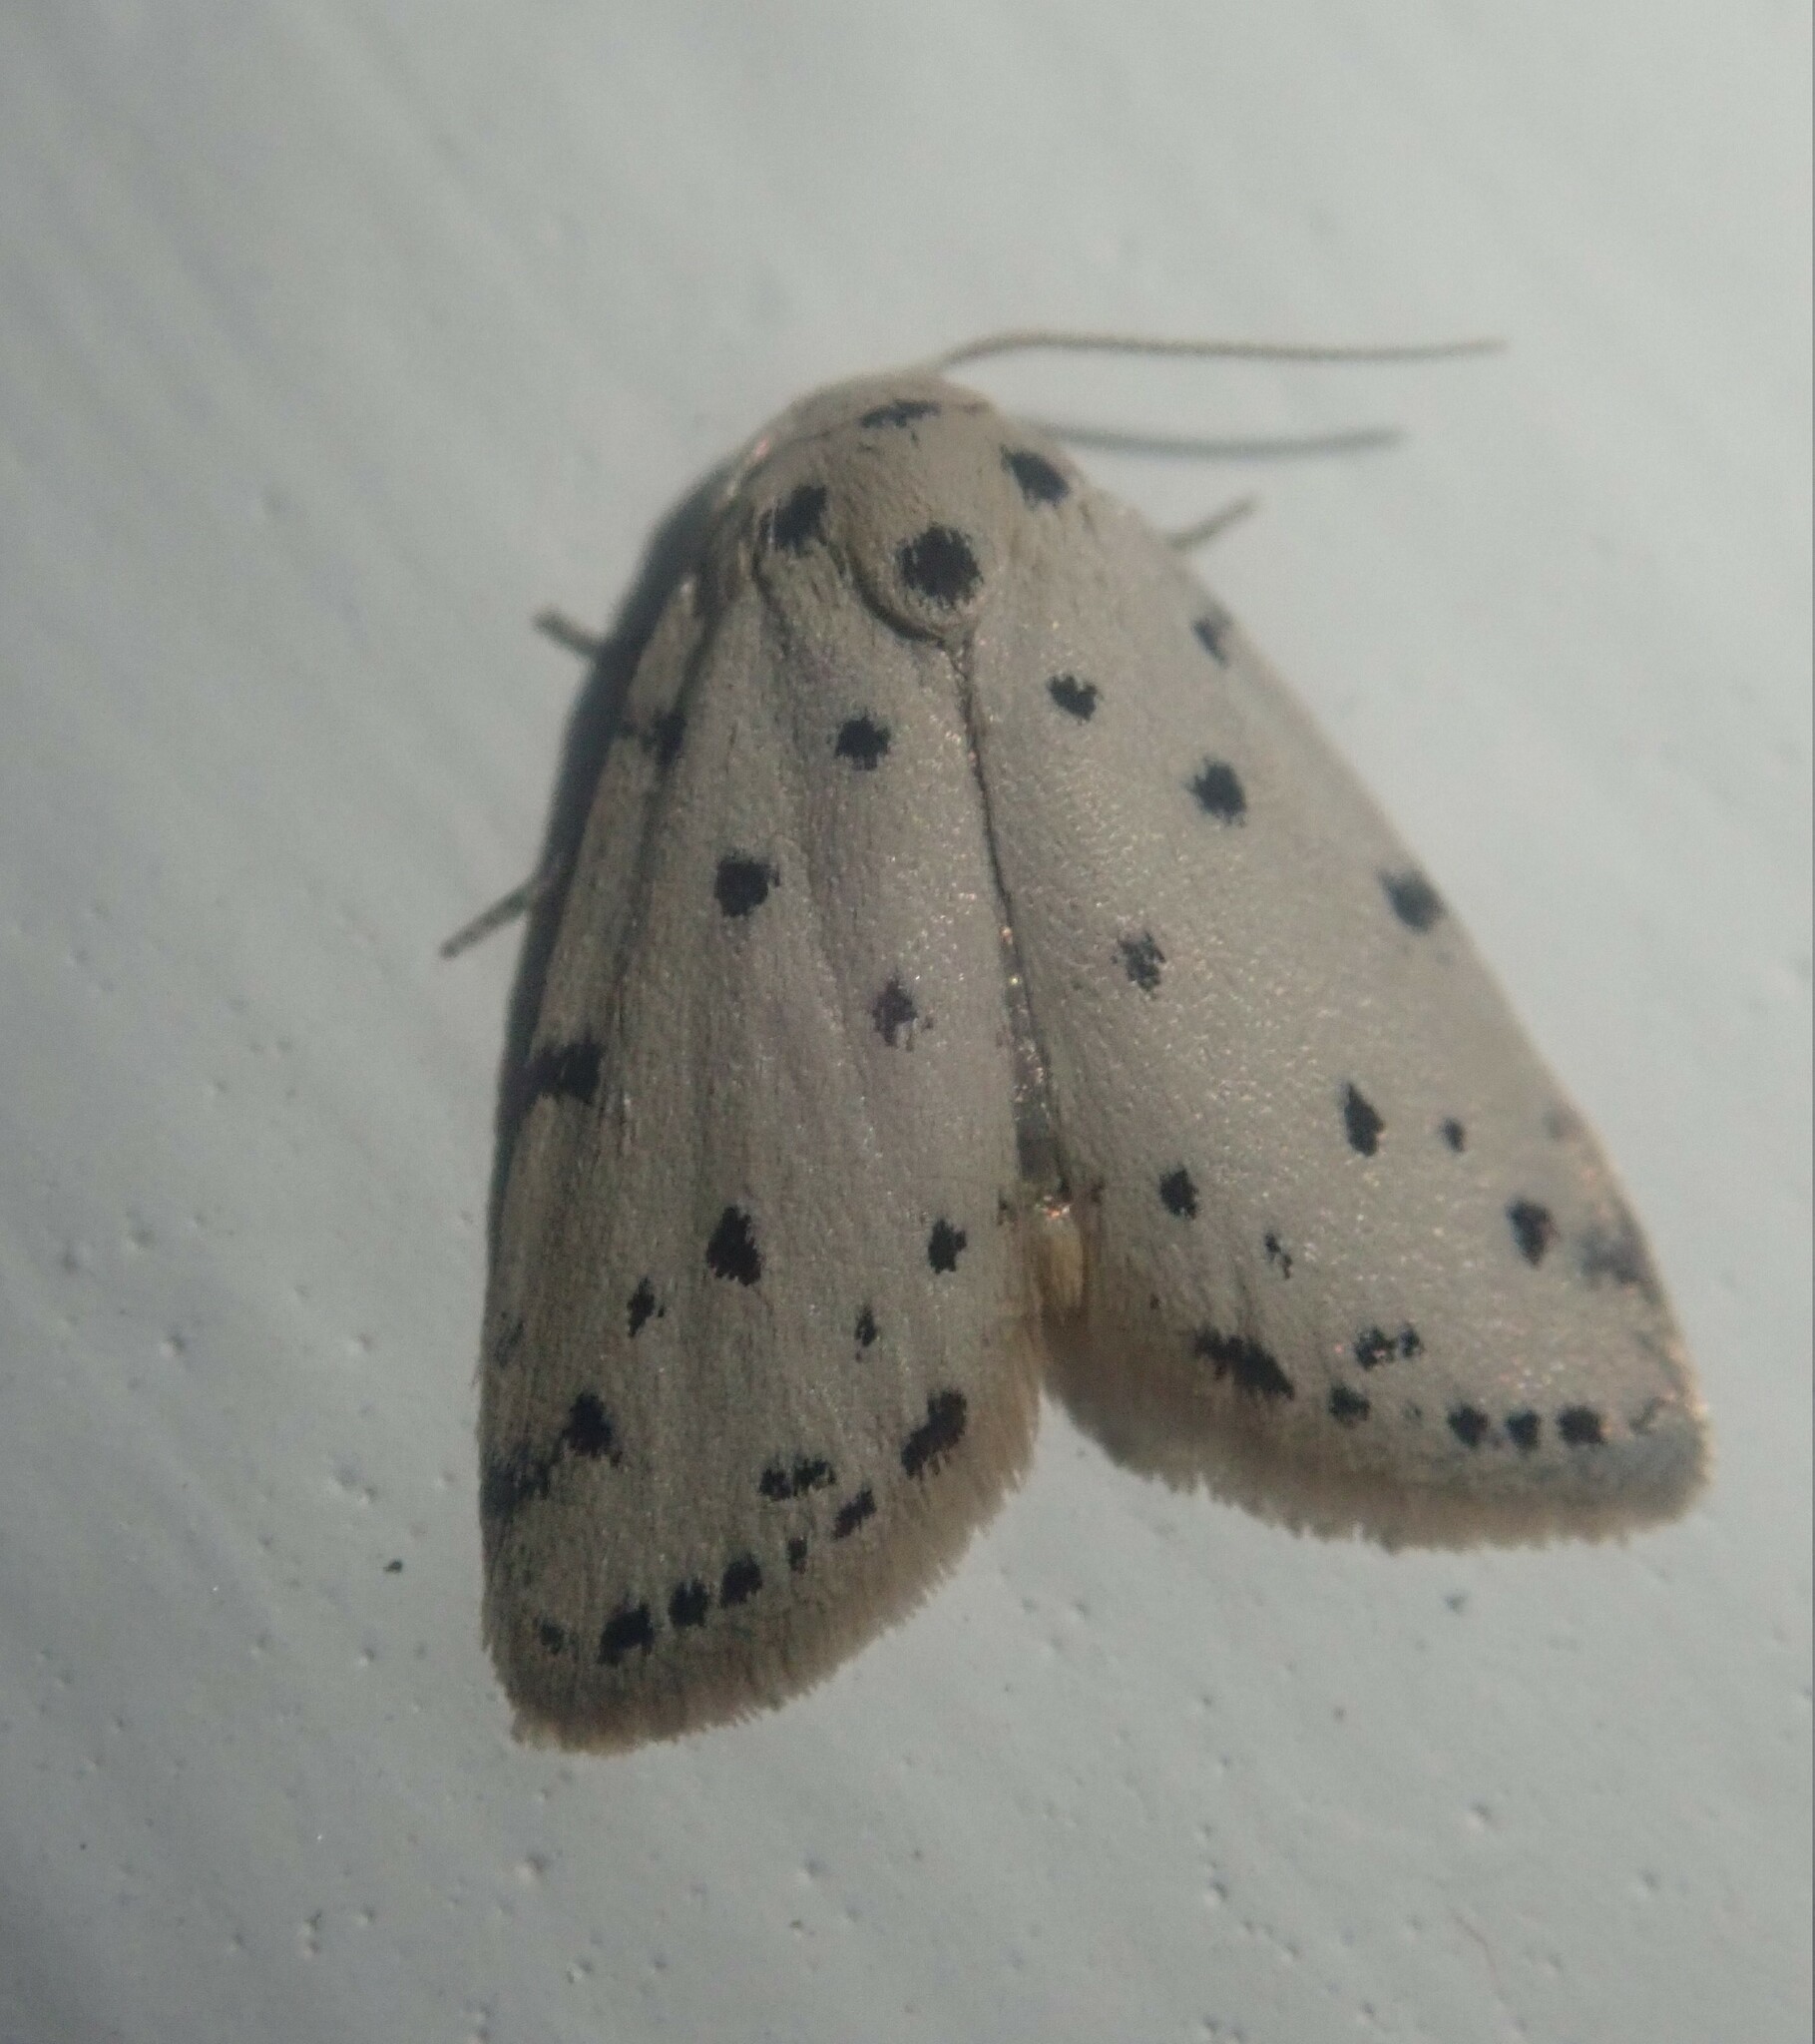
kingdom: Animalia
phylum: Arthropoda
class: Insecta
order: Lepidoptera
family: Erebidae
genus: Siccia
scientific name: Siccia melanospila
